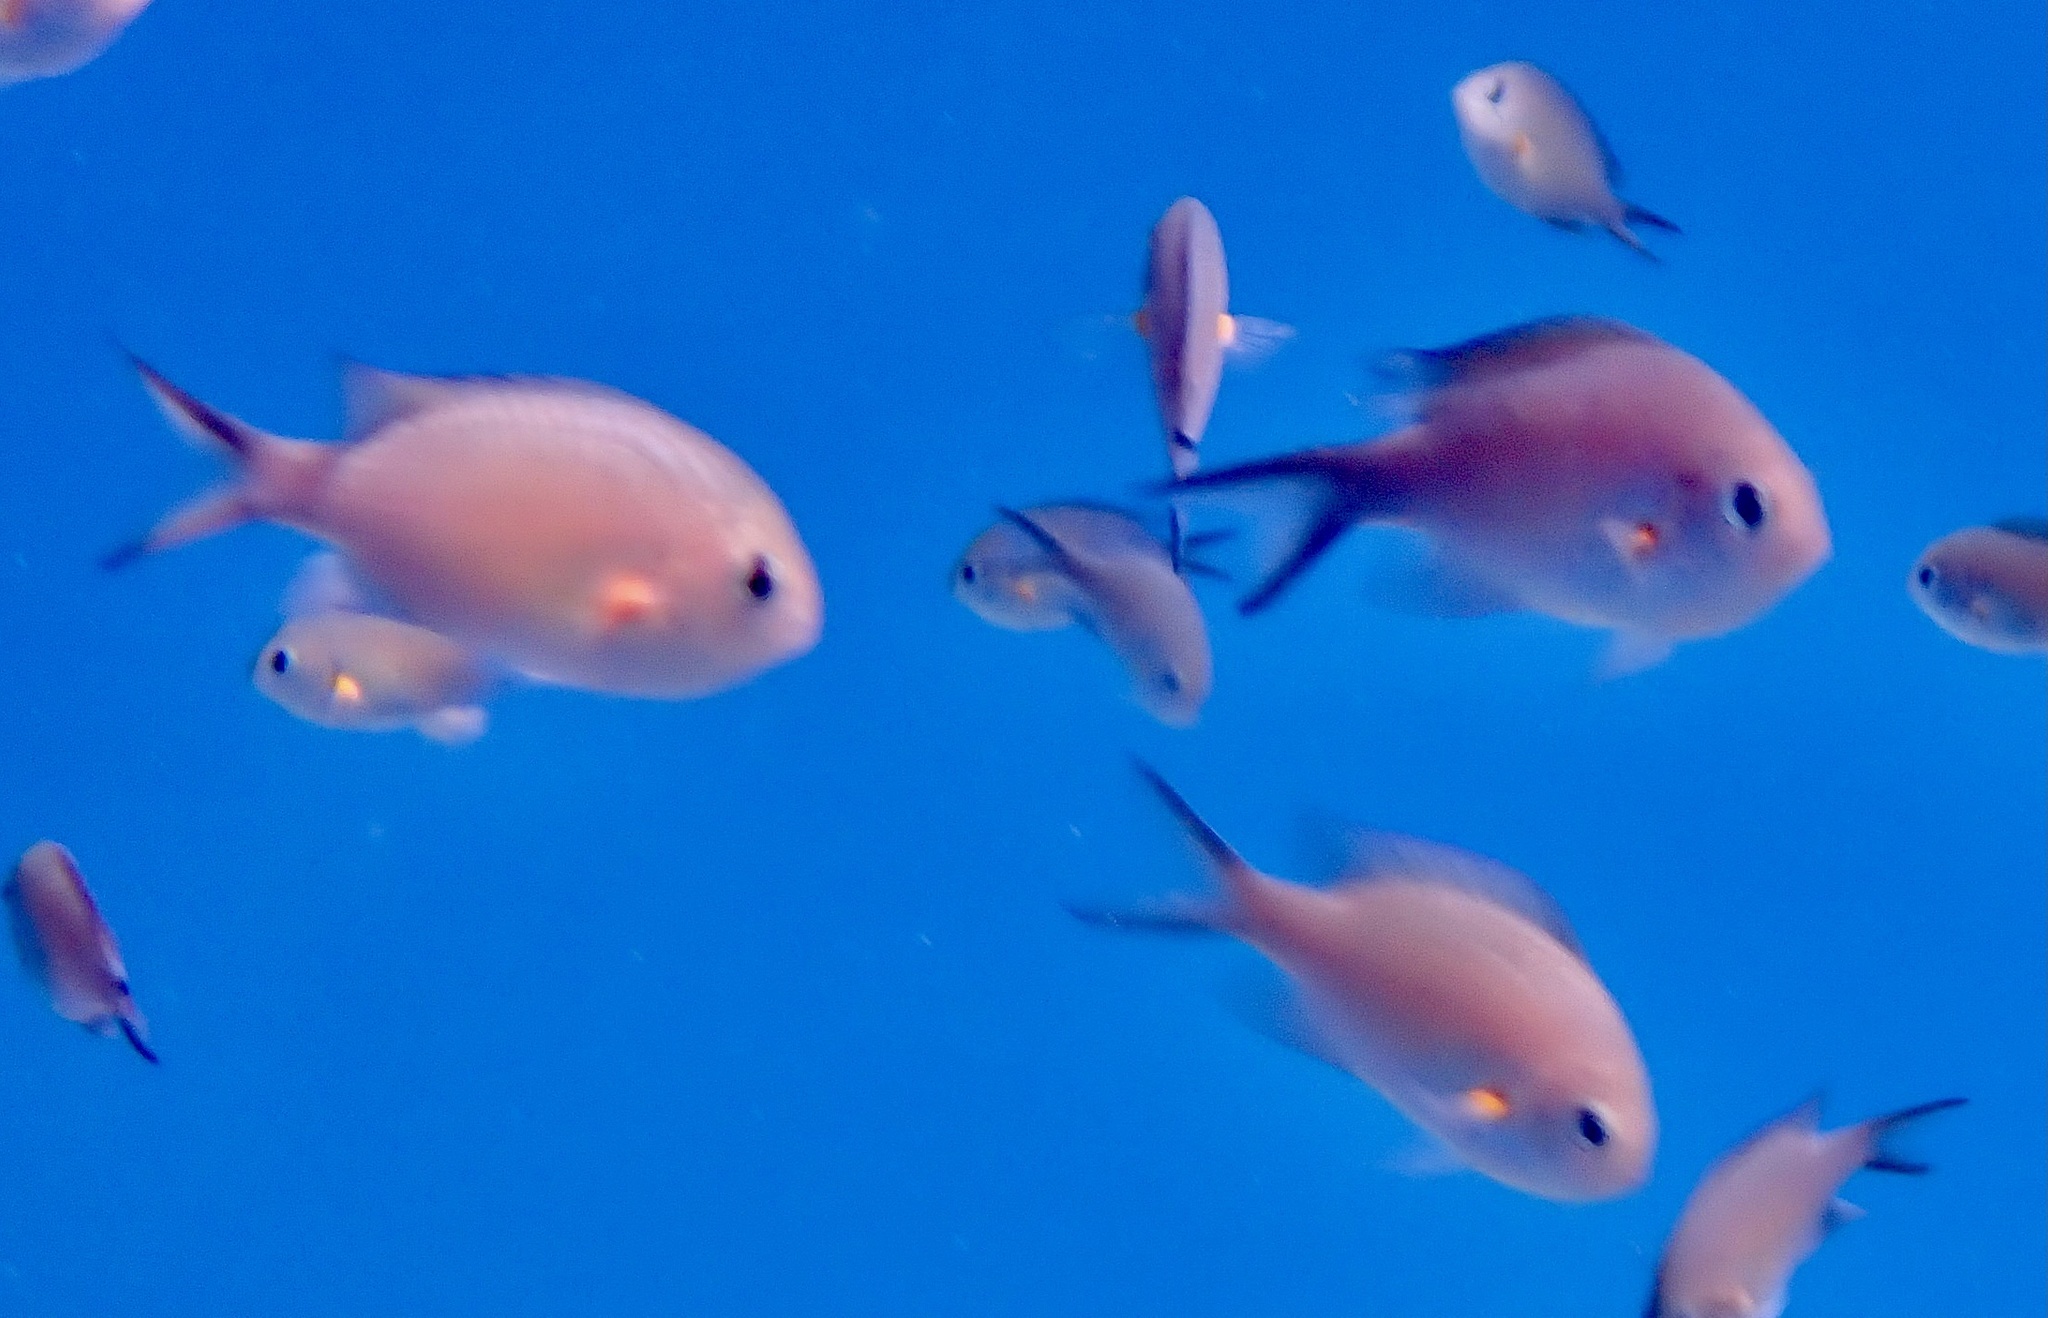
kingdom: Animalia
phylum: Chordata
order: Perciformes
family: Pomacentridae
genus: Chromis
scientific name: Chromis flavaxilla
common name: Arabian chromis
